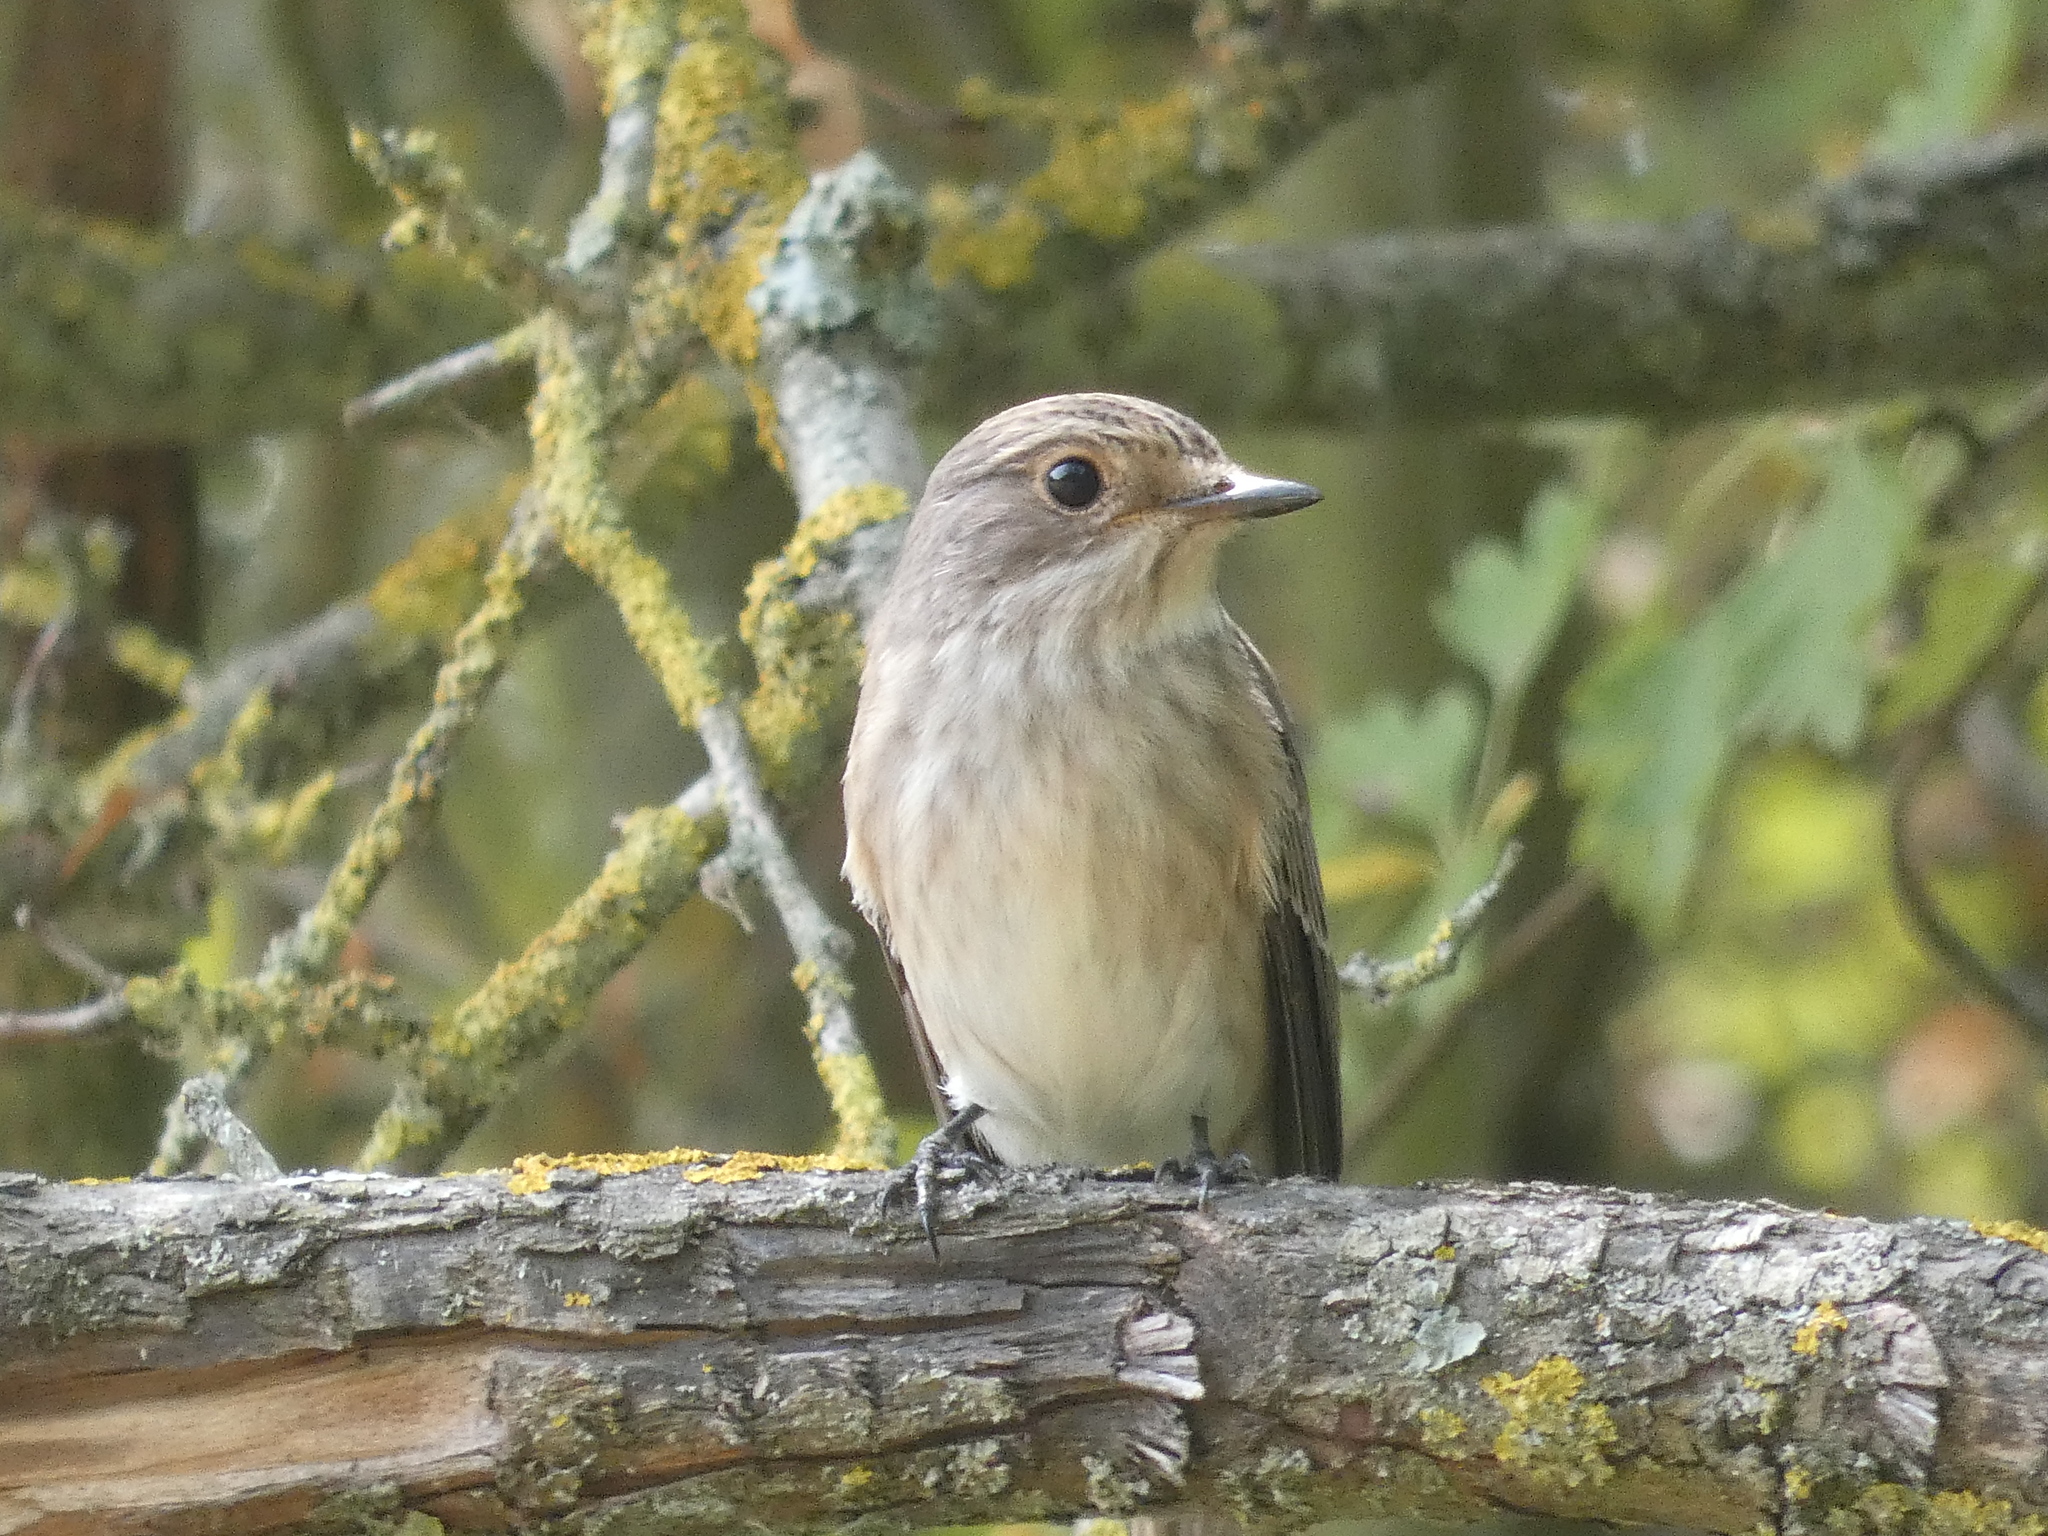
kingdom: Animalia
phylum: Chordata
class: Aves
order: Passeriformes
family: Muscicapidae
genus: Muscicapa
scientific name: Muscicapa striata
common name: Spotted flycatcher
